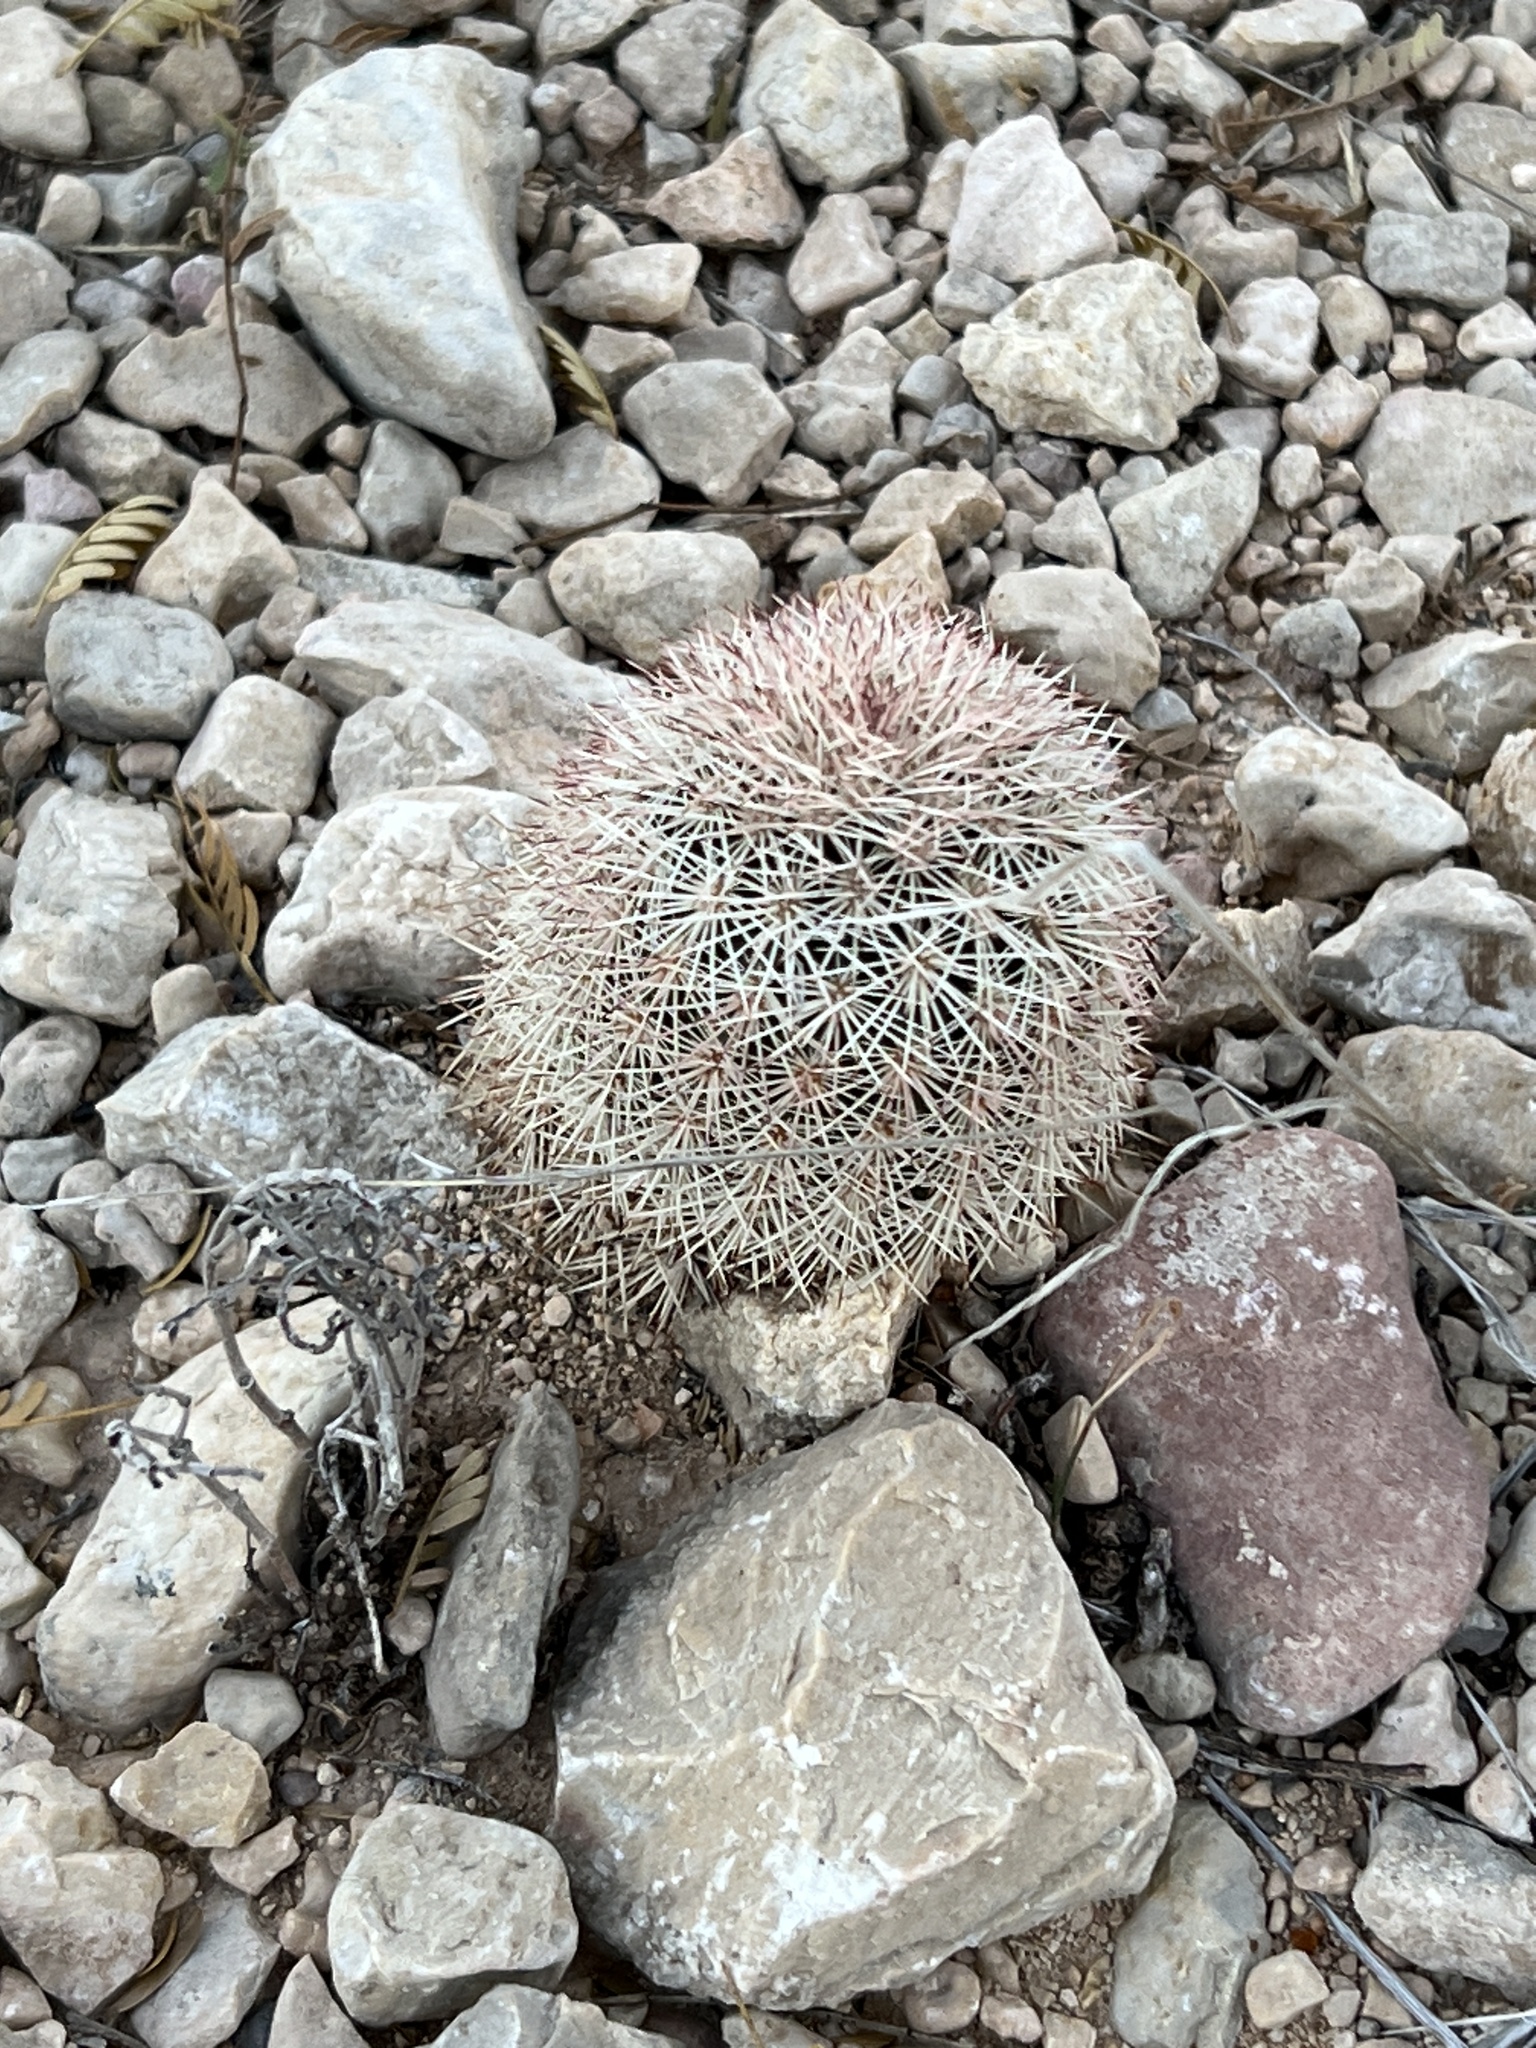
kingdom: Plantae
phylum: Tracheophyta
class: Magnoliopsida
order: Caryophyllales
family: Cactaceae
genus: Echinocereus
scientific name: Echinocereus dasyacanthus
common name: Spiny hedgehog cactus
